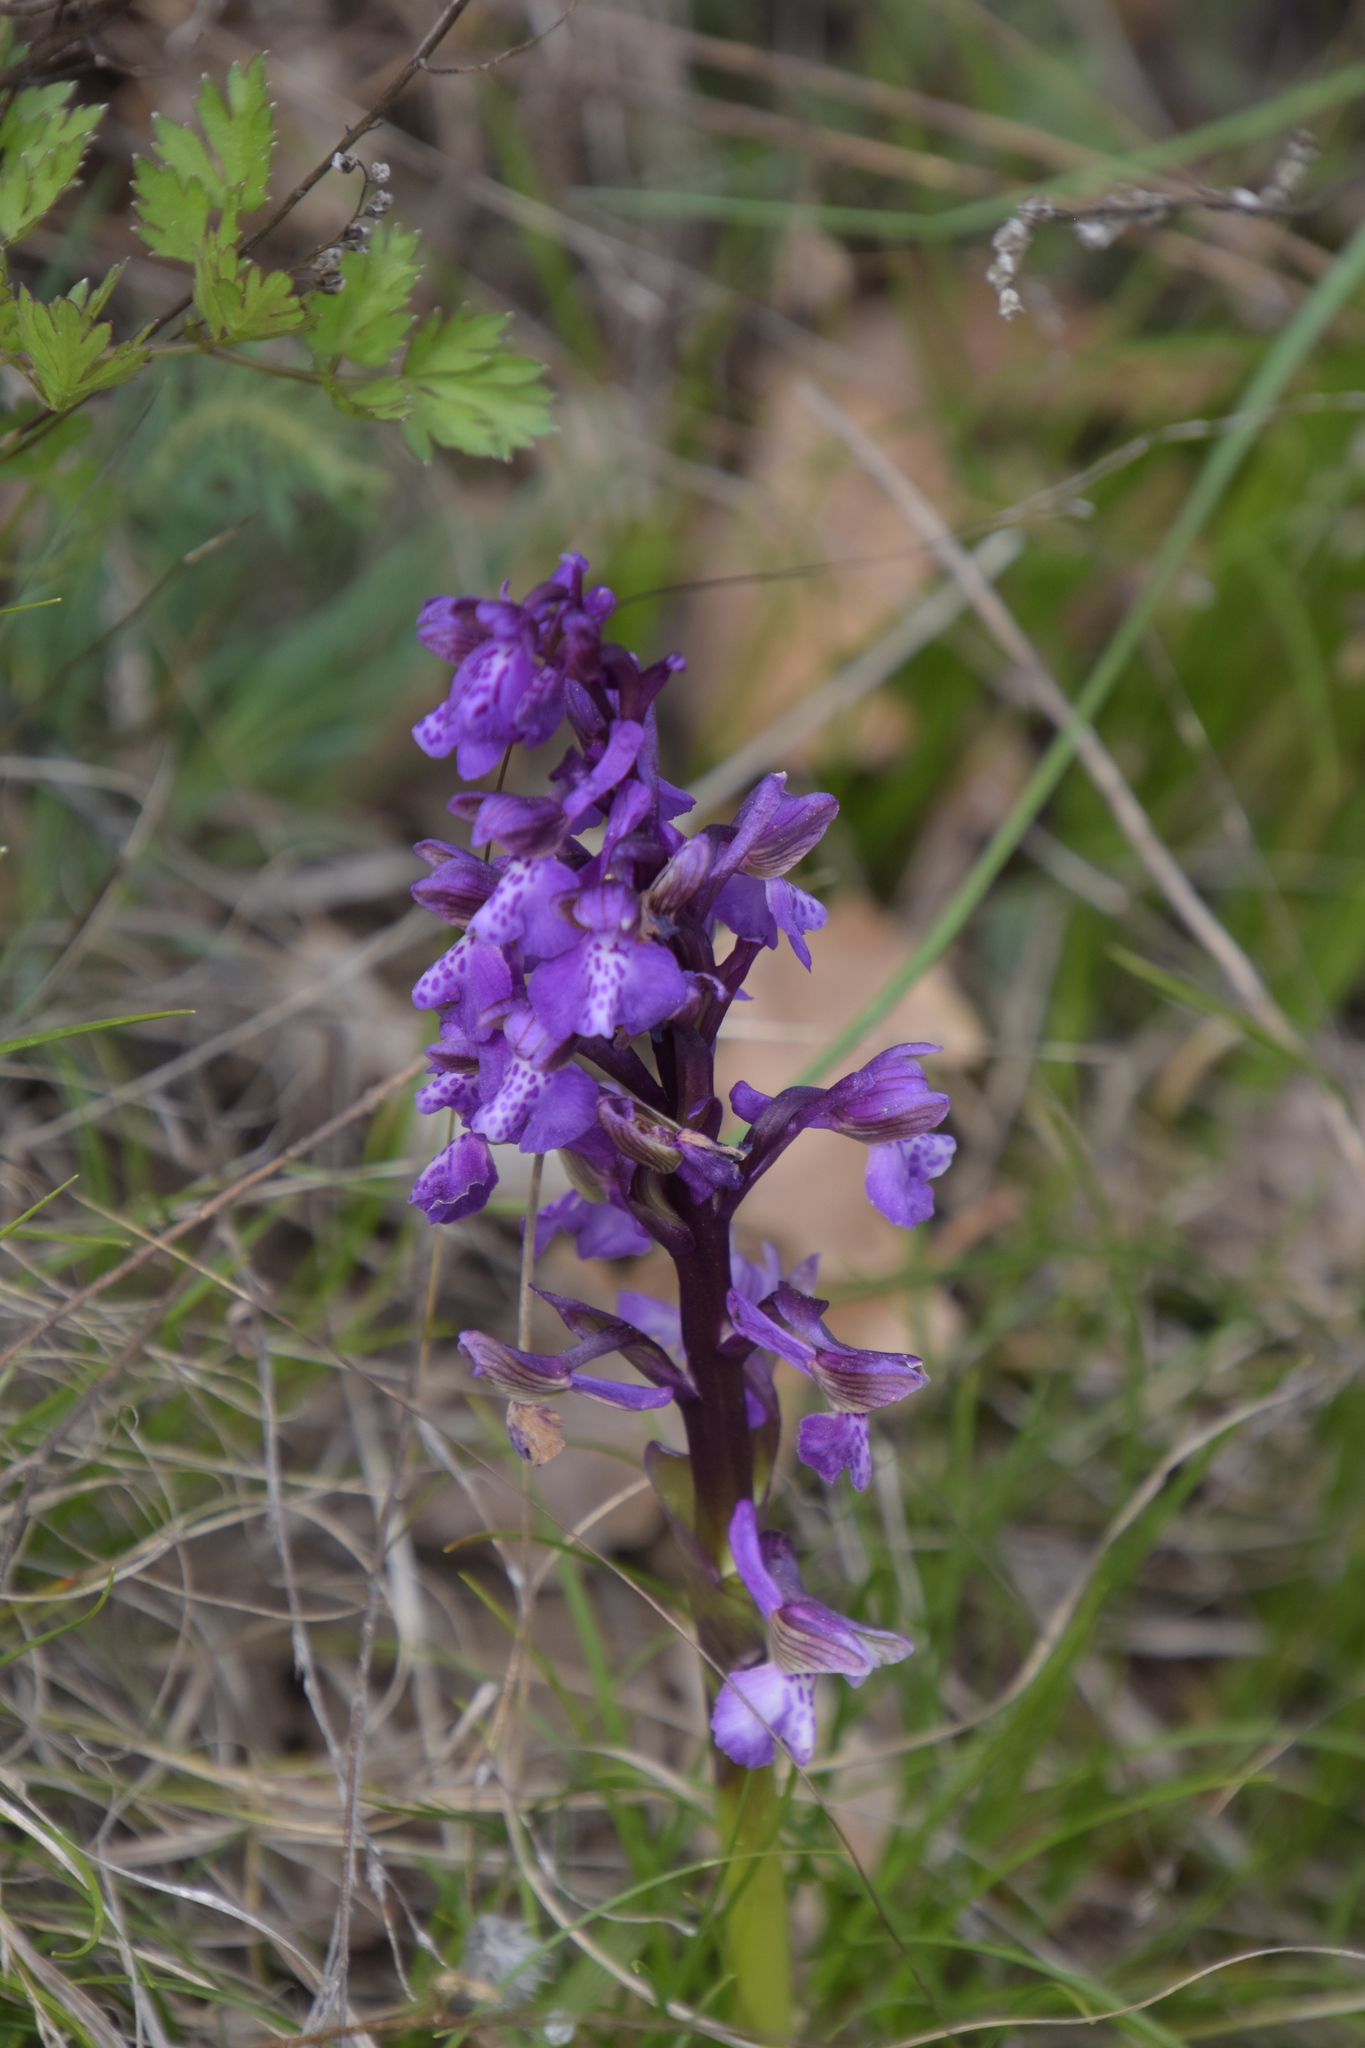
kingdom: Plantae
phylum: Tracheophyta
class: Liliopsida
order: Asparagales
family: Orchidaceae
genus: Anacamptis
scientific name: Anacamptis morio
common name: Green-winged orchid
